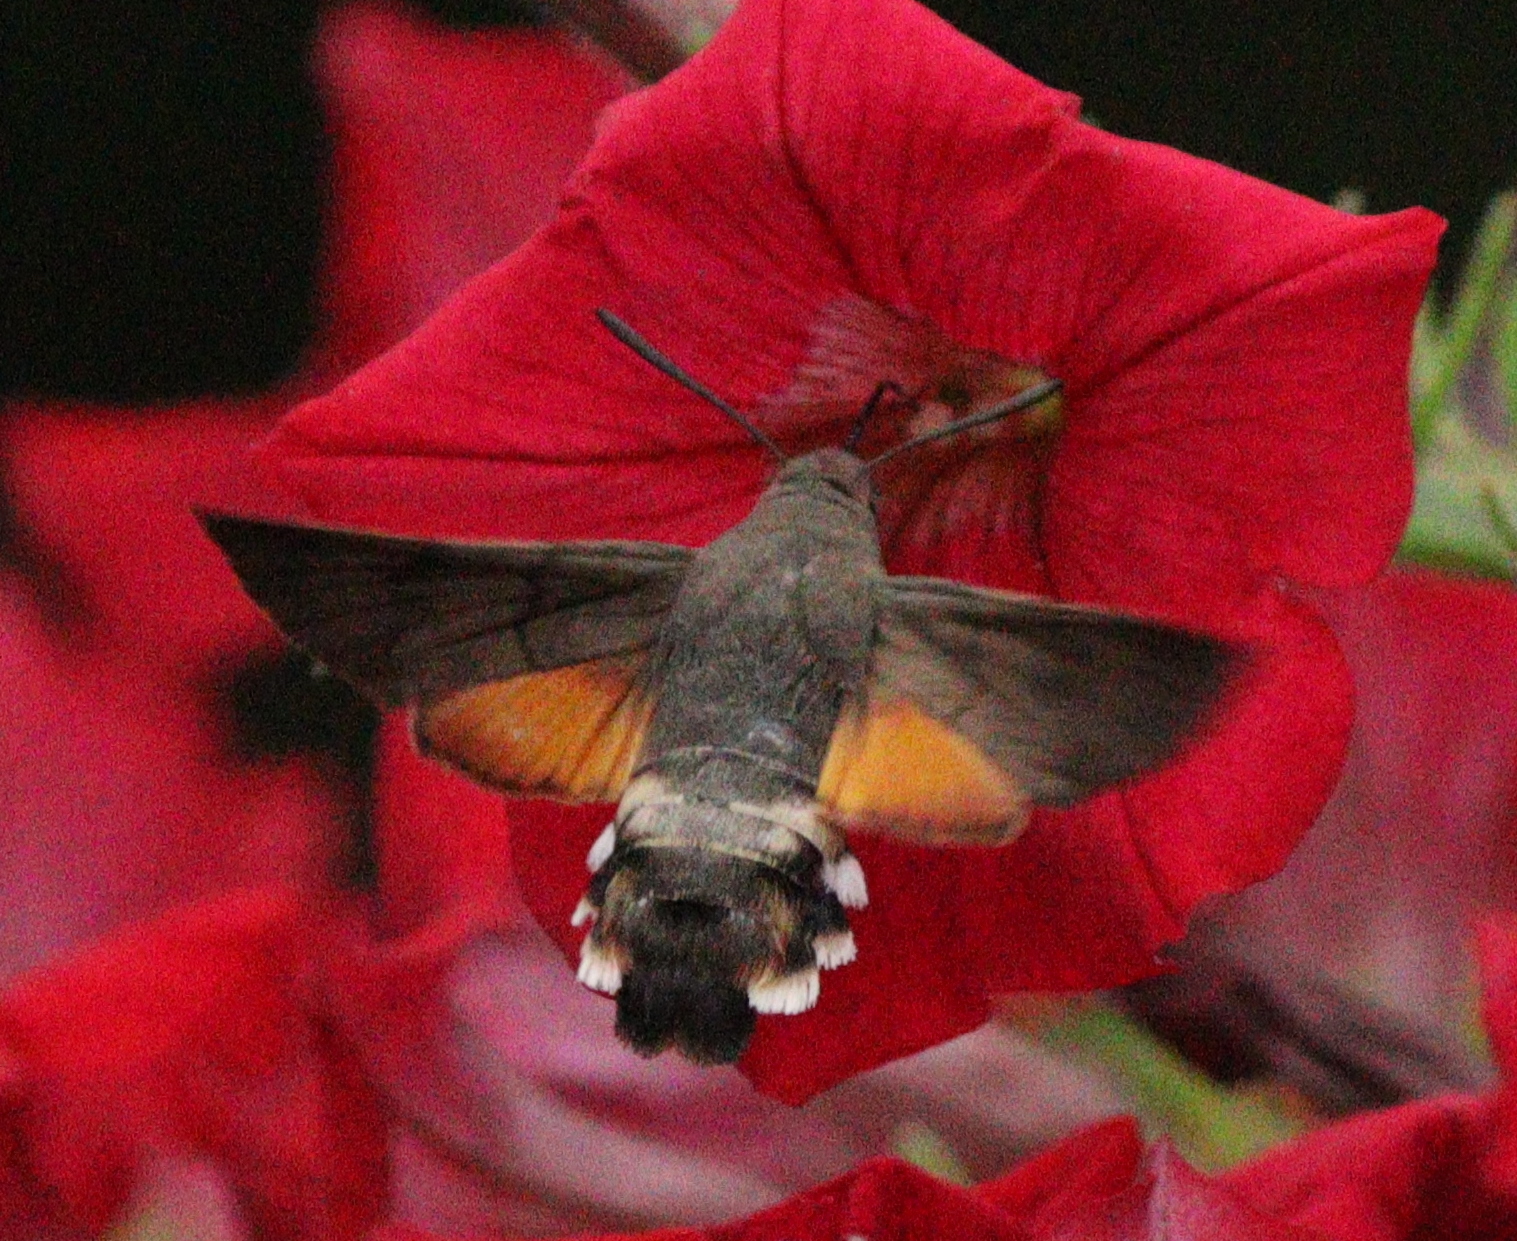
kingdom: Animalia
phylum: Arthropoda
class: Insecta
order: Lepidoptera
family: Sphingidae
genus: Macroglossum
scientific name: Macroglossum stellatarum
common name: Humming-bird hawk-moth
